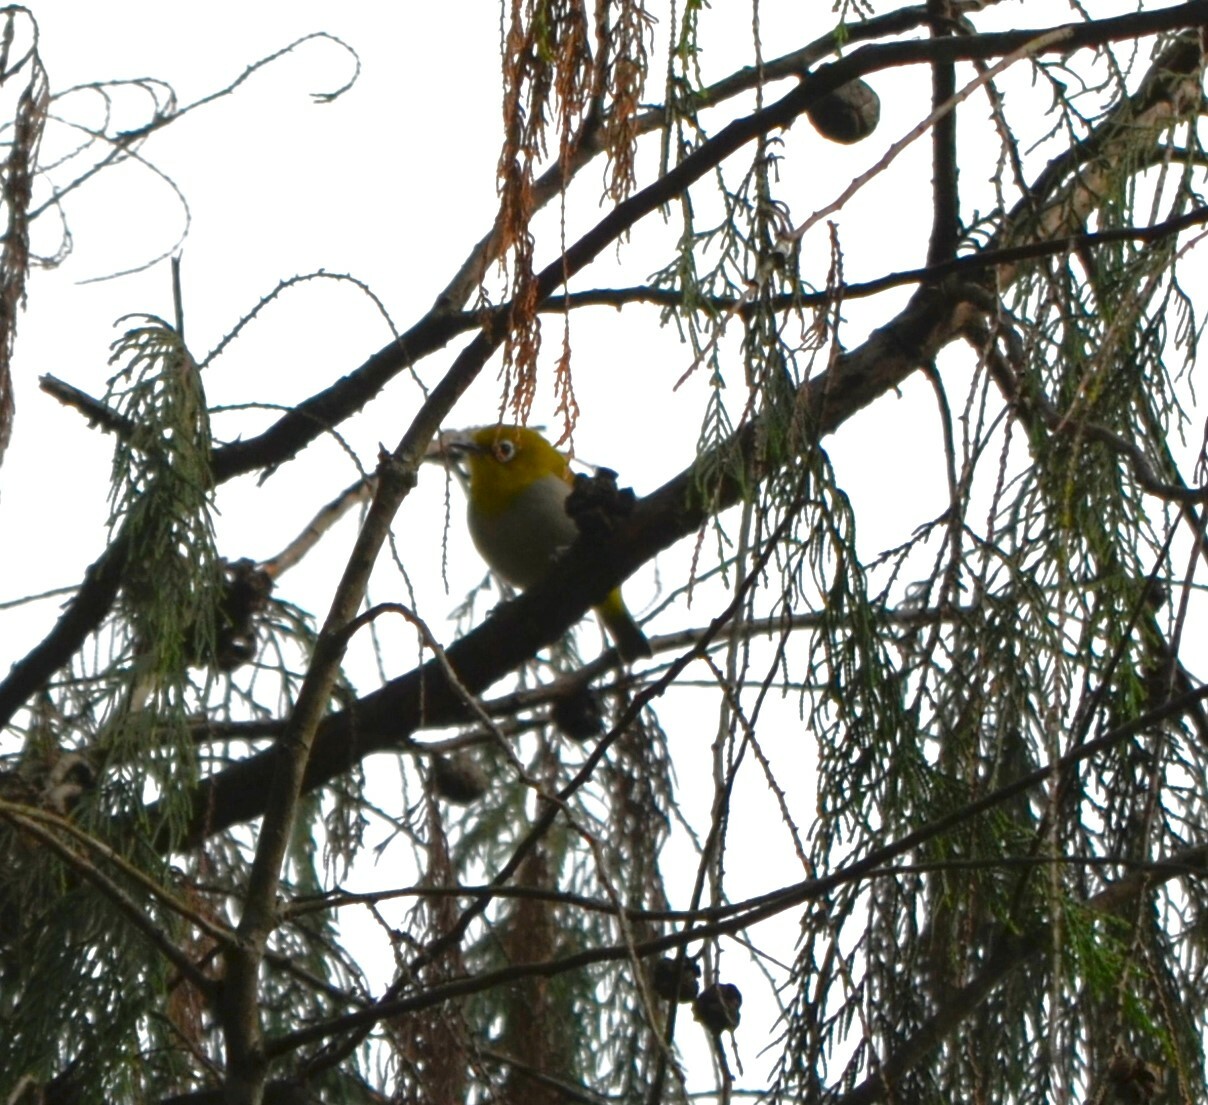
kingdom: Animalia
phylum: Chordata
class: Aves
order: Passeriformes
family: Zosteropidae
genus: Zosterops
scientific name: Zosterops palpebrosus
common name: Oriental white-eye
